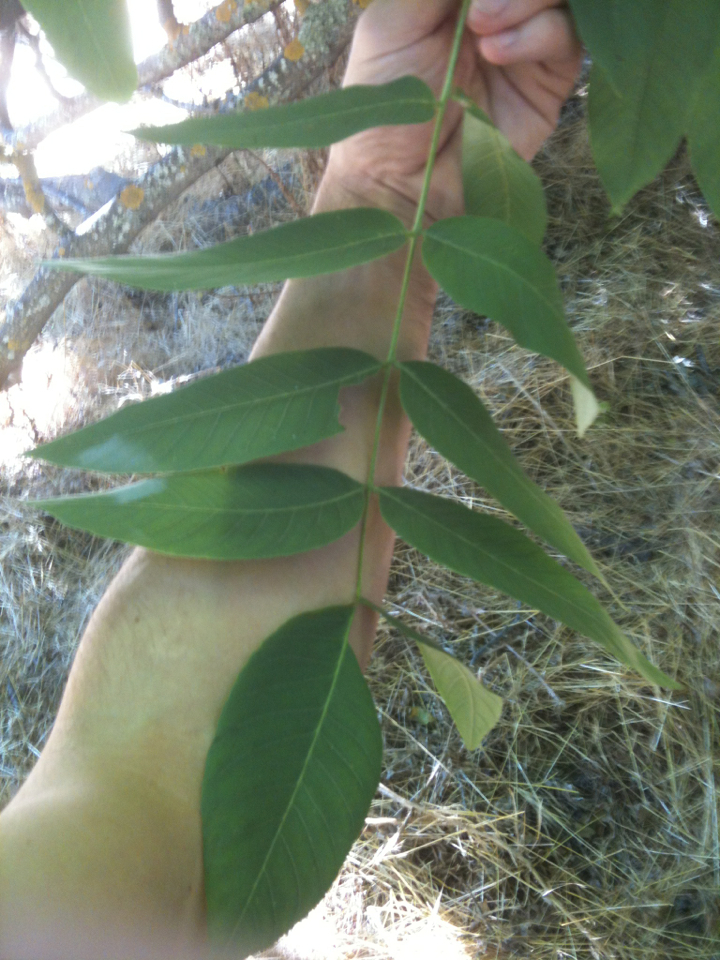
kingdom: Plantae
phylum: Tracheophyta
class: Magnoliopsida
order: Fagales
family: Juglandaceae
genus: Juglans
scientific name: Juglans hindsii
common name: Northern california black walnut
